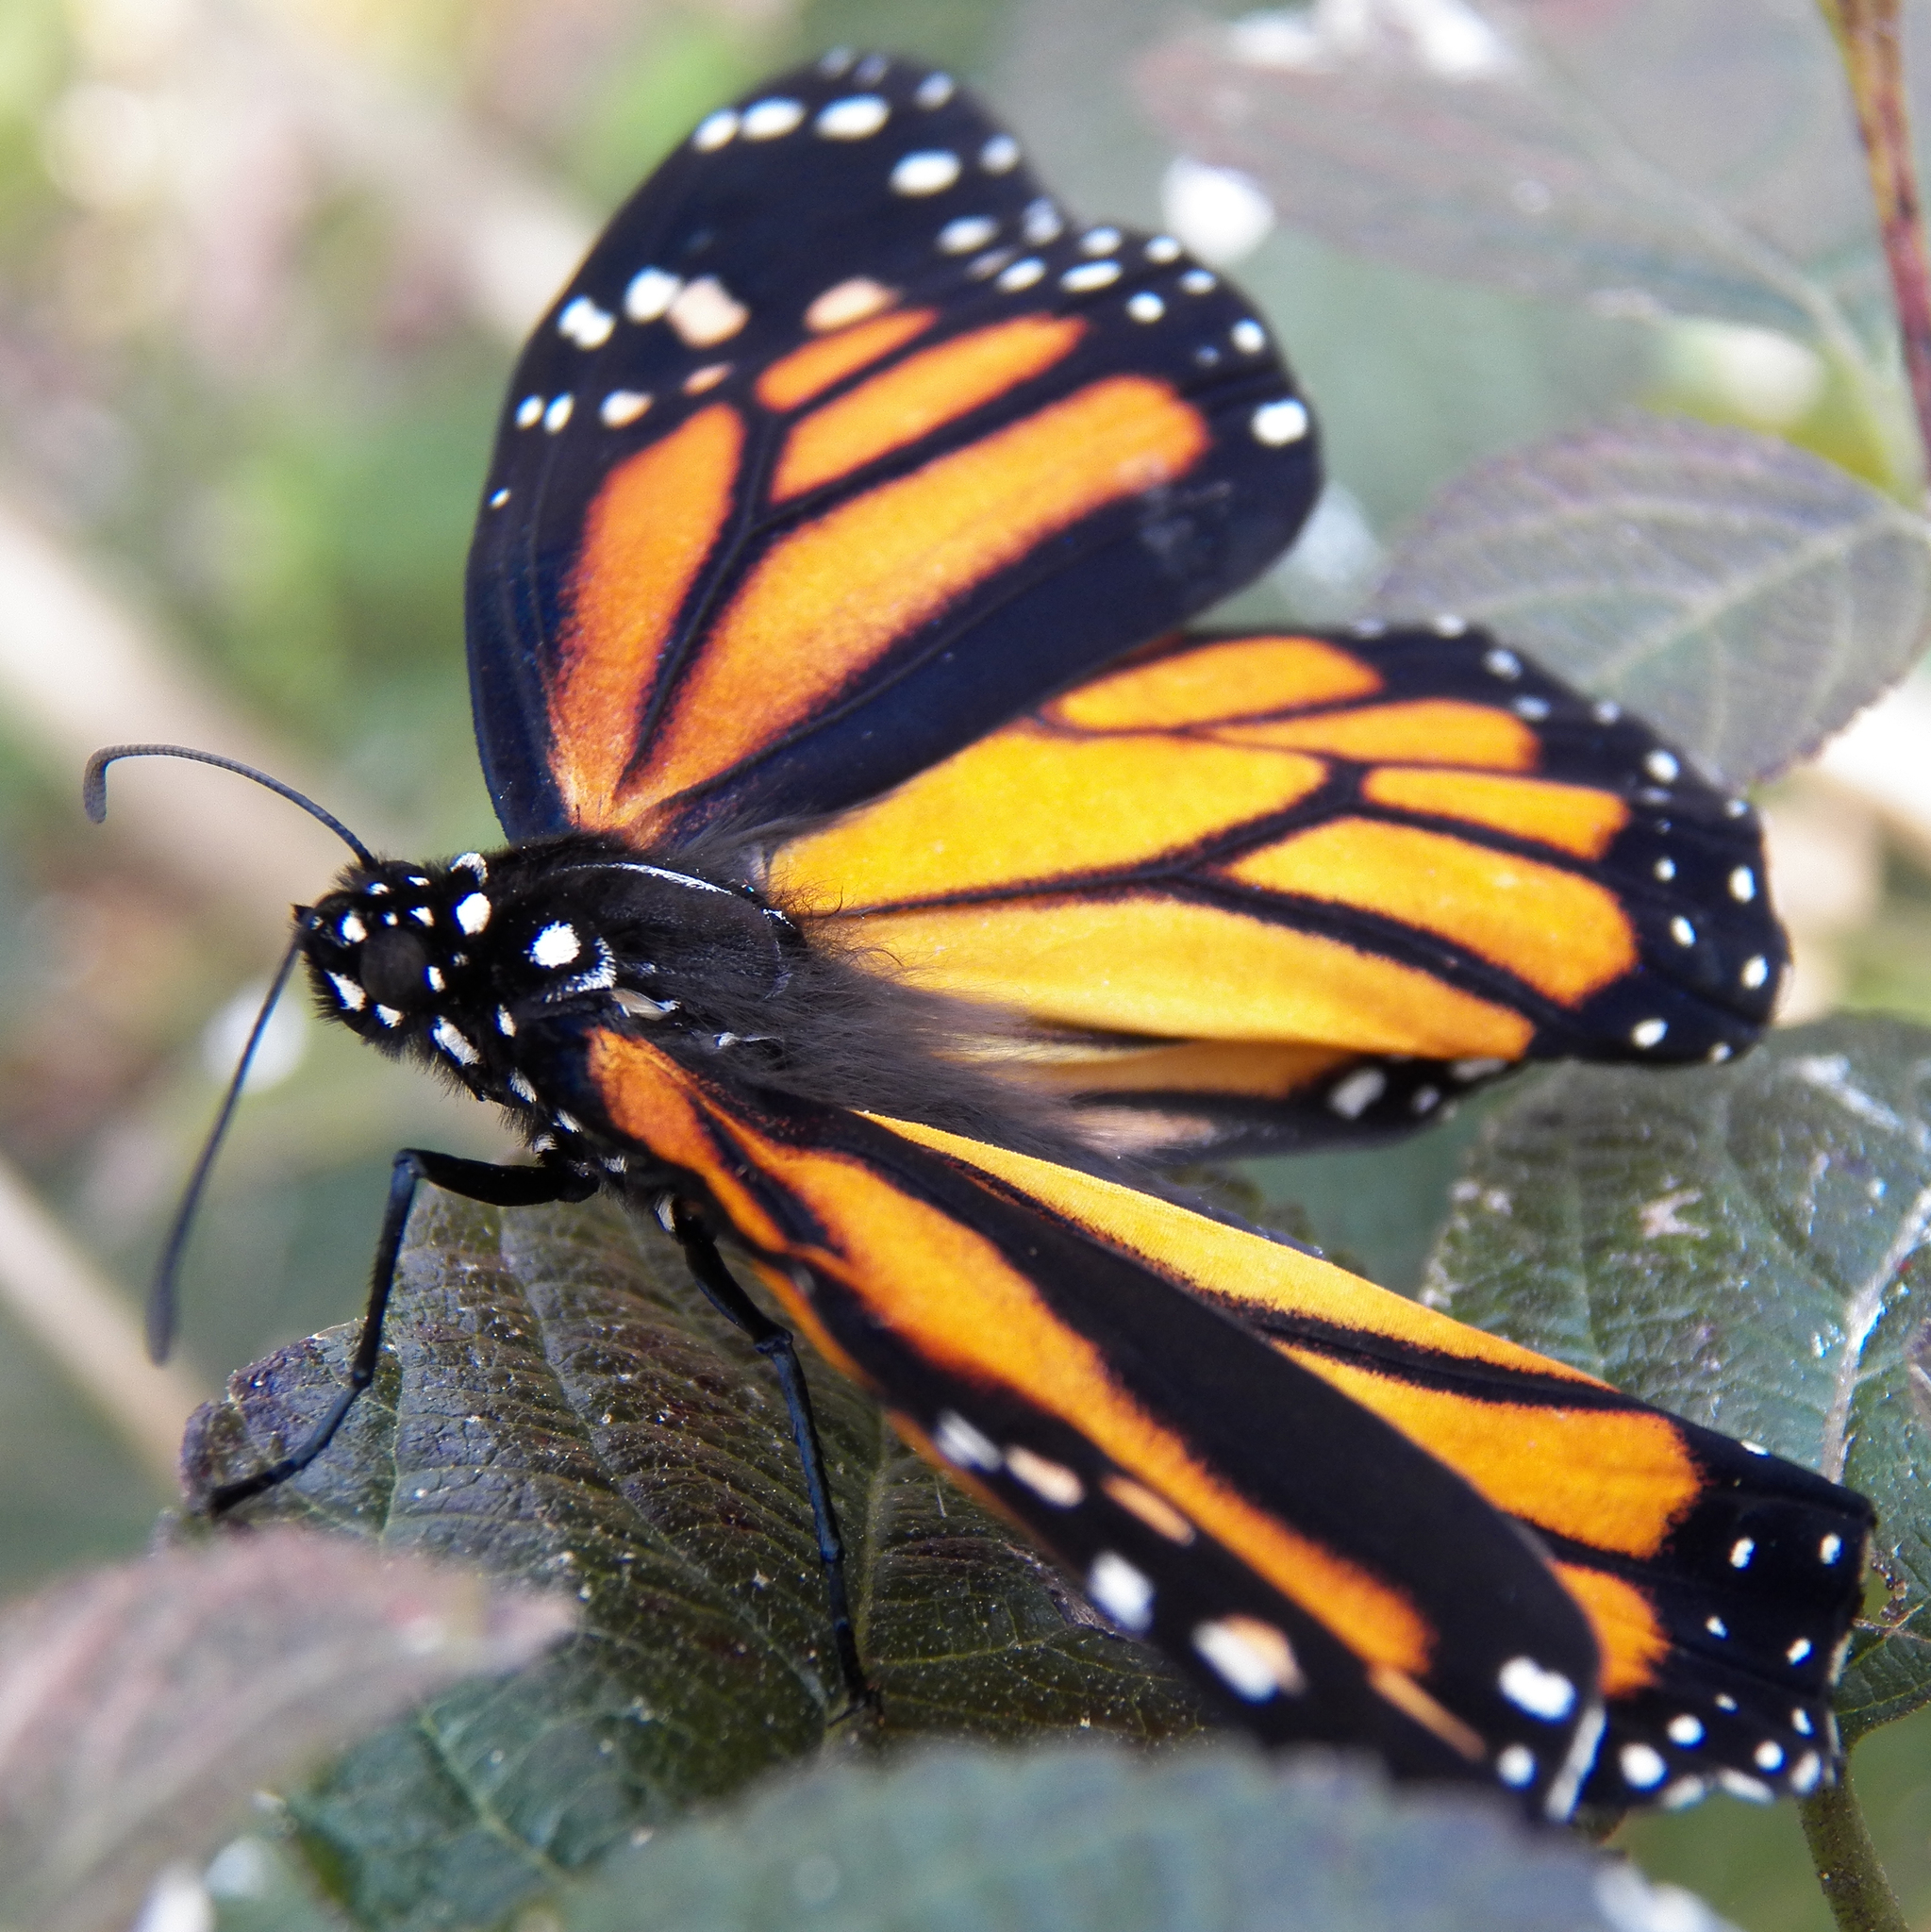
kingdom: Animalia
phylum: Arthropoda
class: Insecta
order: Lepidoptera
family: Nymphalidae
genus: Danaus
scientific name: Danaus plexippus
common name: Monarch
